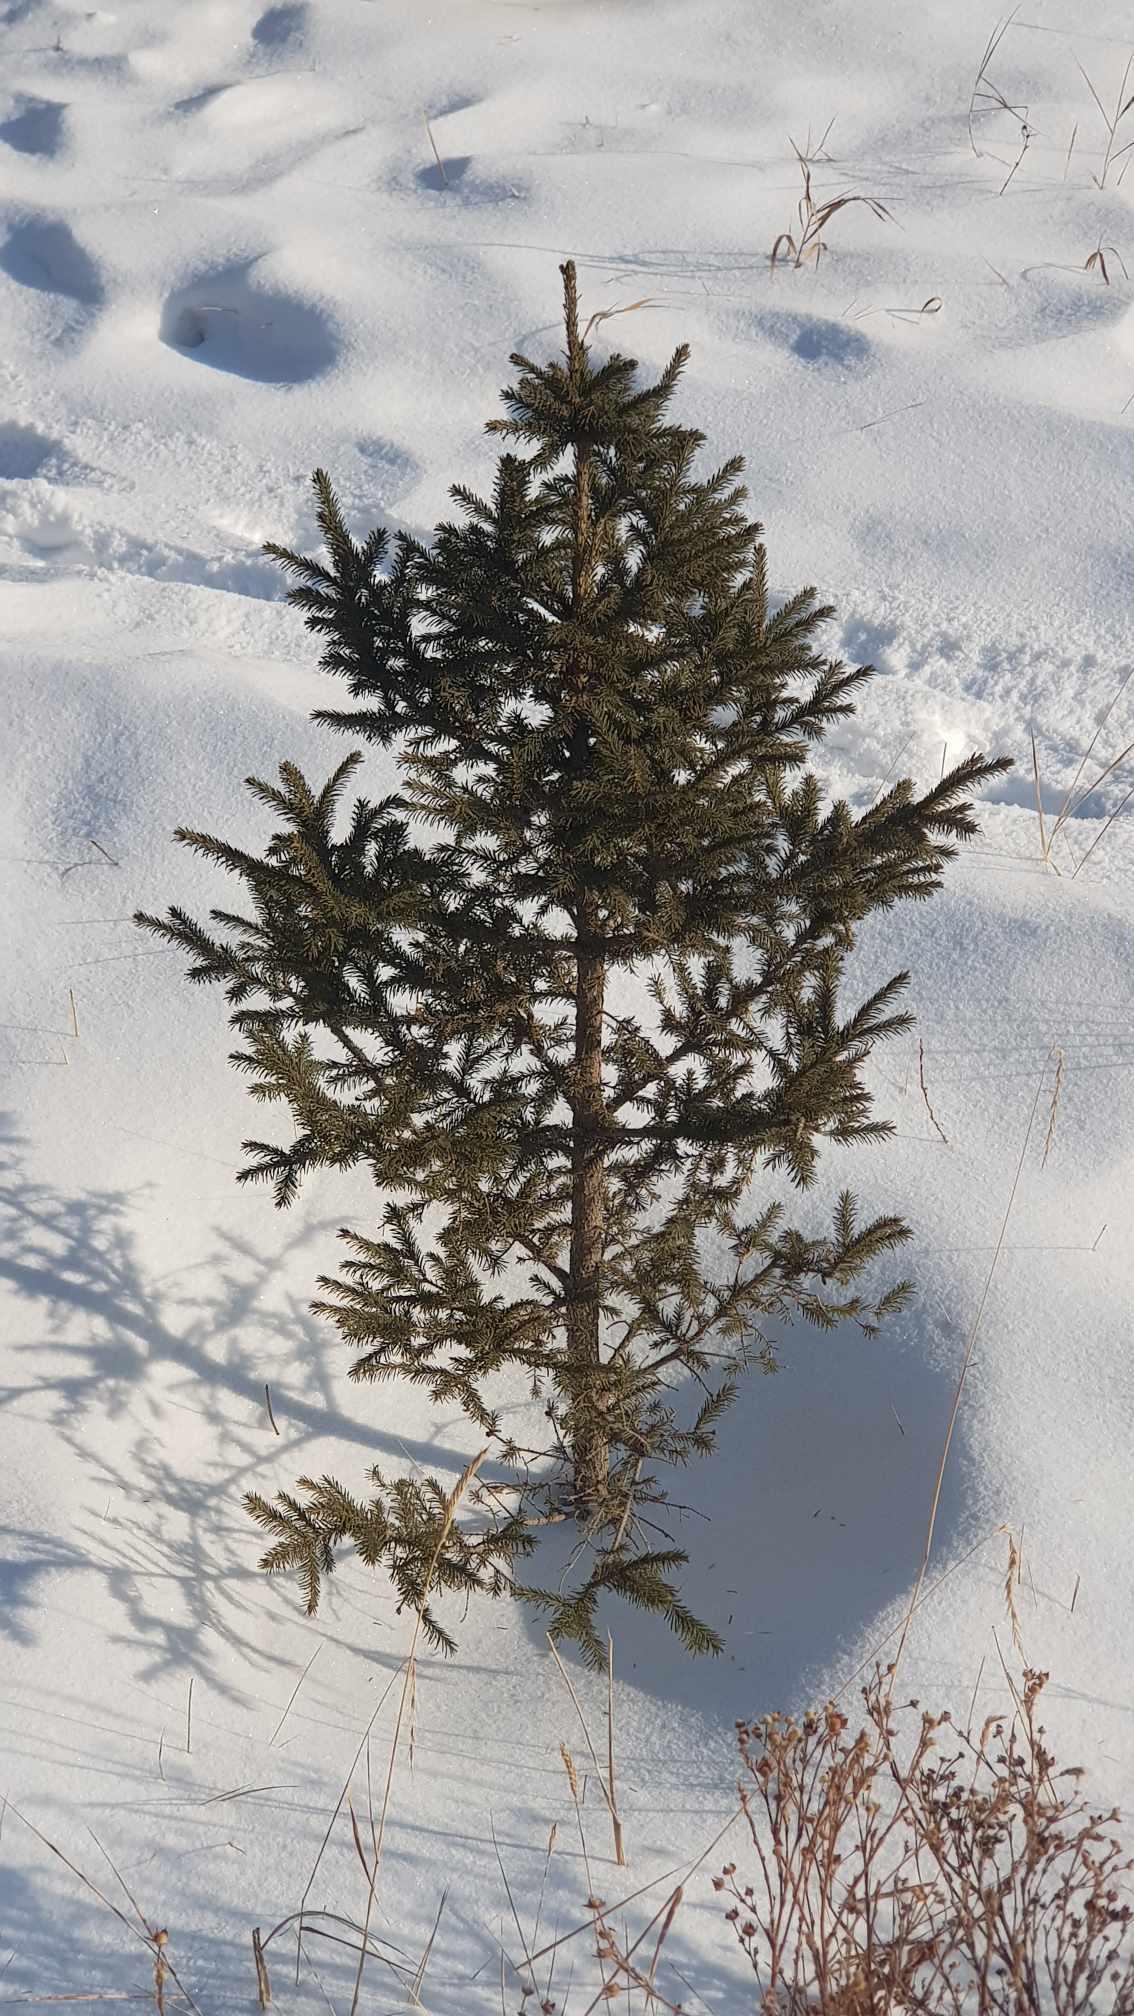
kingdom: Plantae
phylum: Tracheophyta
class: Pinopsida
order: Pinales
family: Pinaceae
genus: Picea
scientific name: Picea obovata
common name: Siberian spruce
